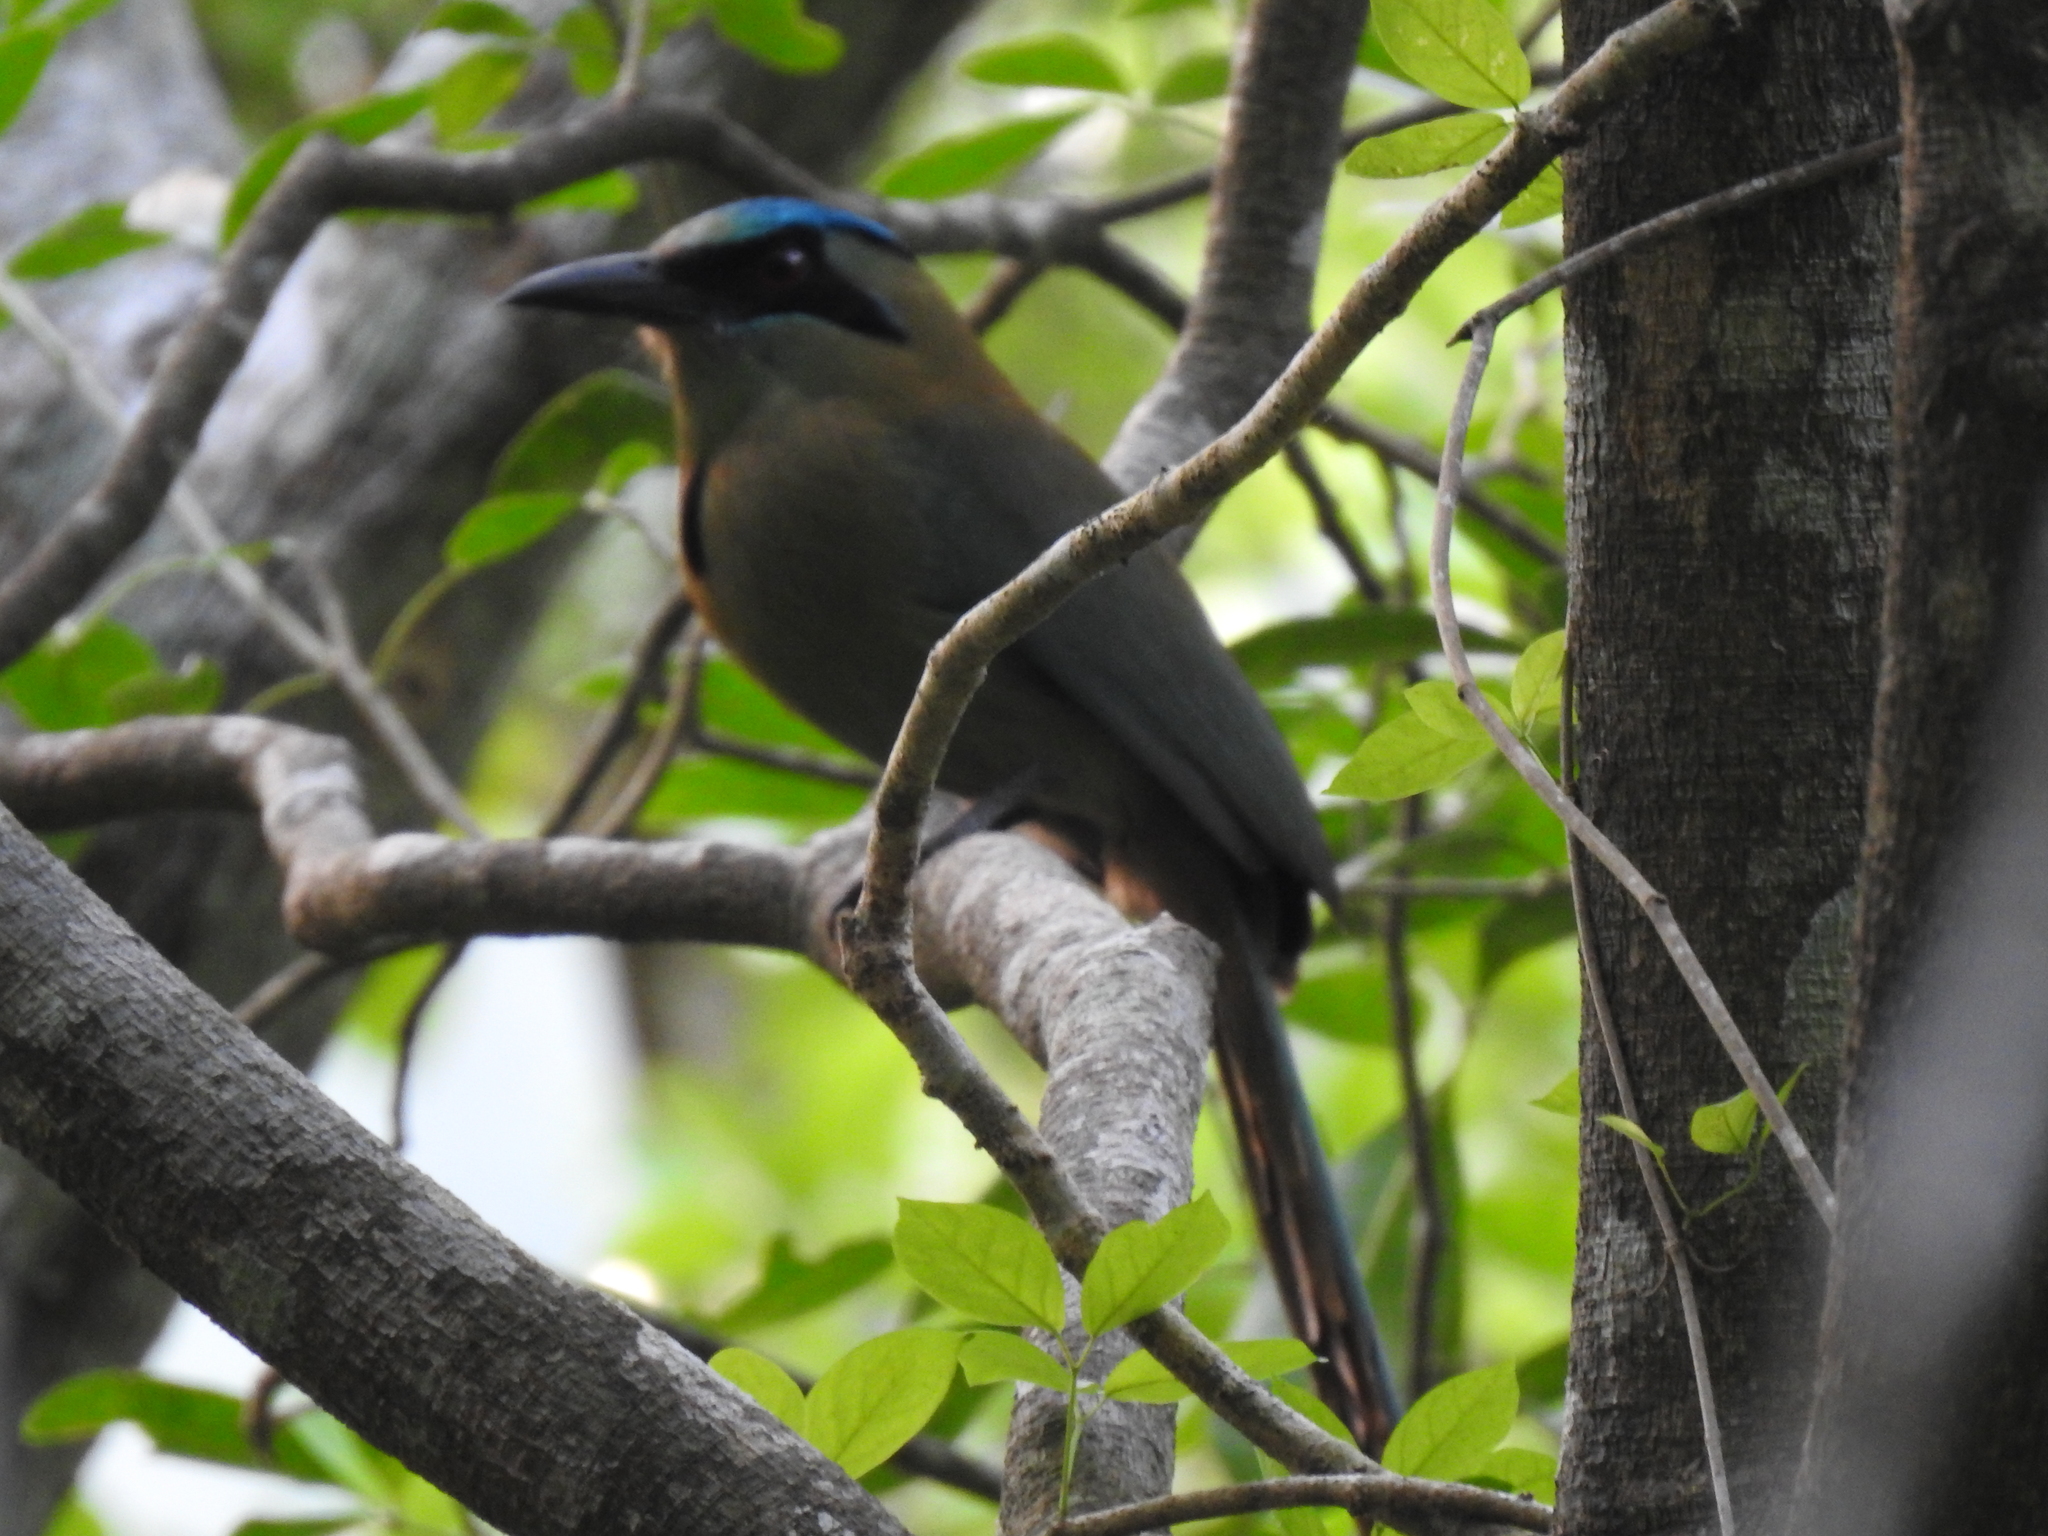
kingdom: Animalia
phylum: Chordata
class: Aves
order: Coraciiformes
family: Momotidae
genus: Momotus
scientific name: Momotus coeruliceps
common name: Blue-capped motmot
